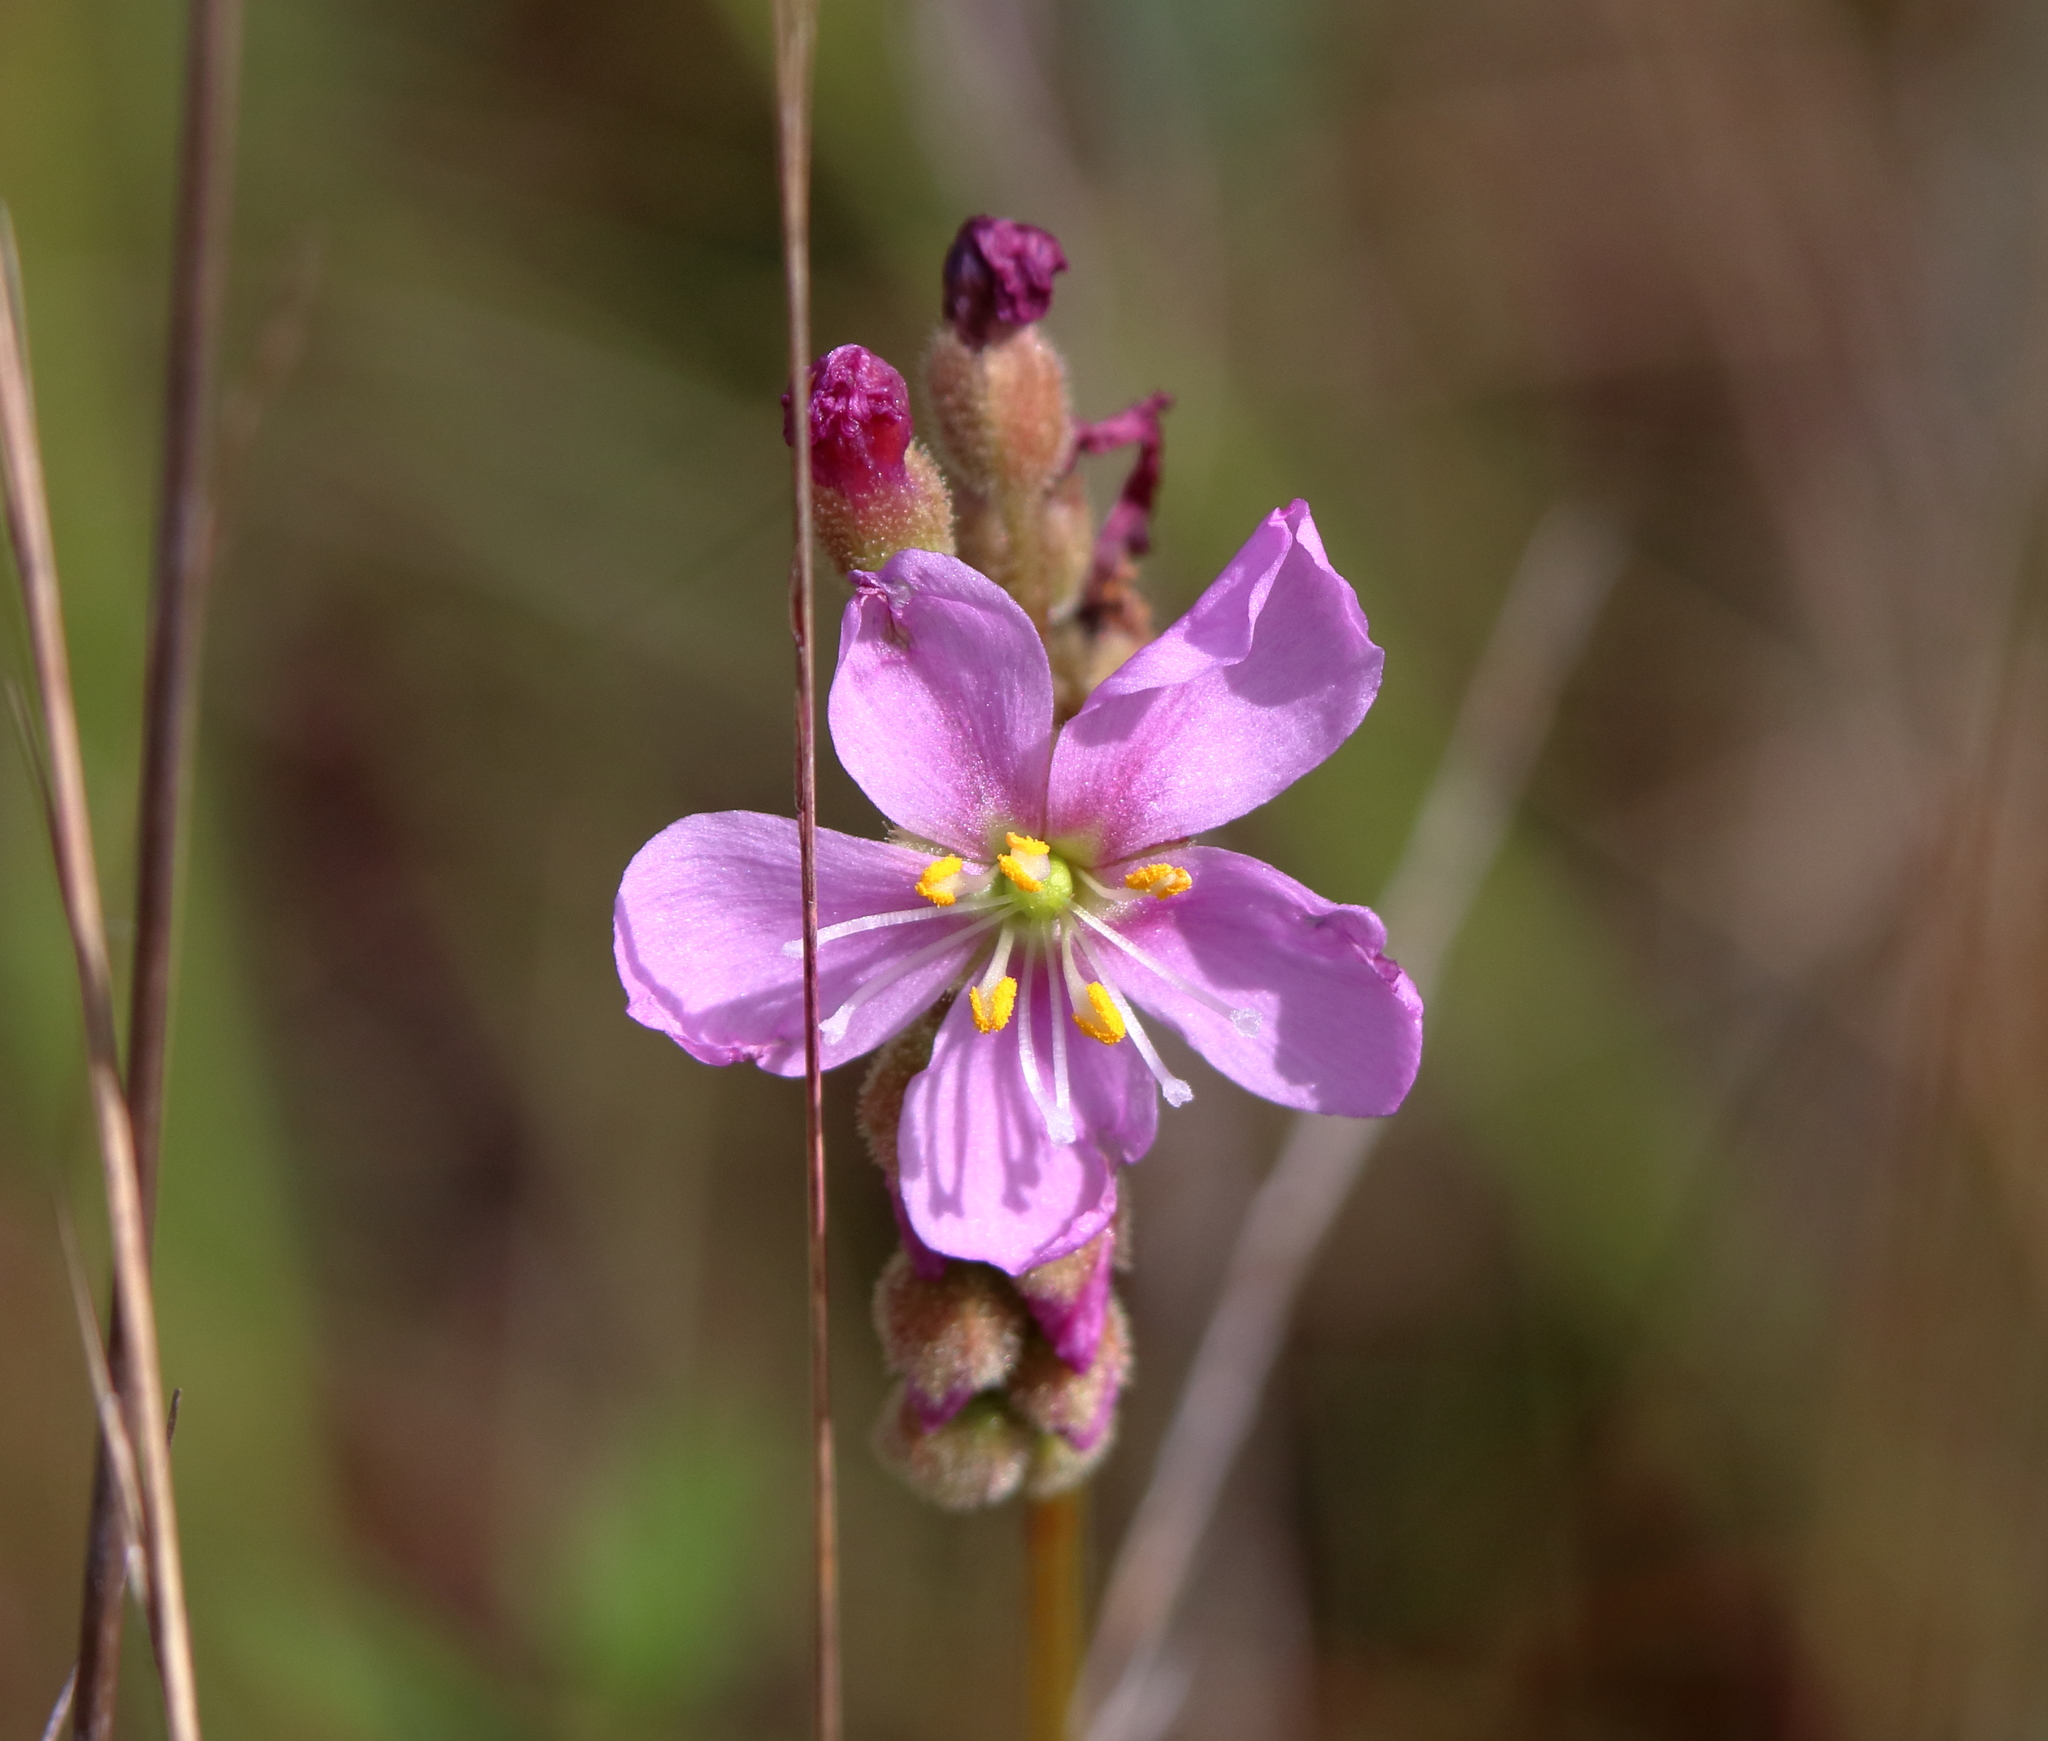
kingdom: Plantae
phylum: Tracheophyta
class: Magnoliopsida
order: Caryophyllales
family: Droseraceae
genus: Drosera
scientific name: Drosera filiformis
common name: Dew-thread
